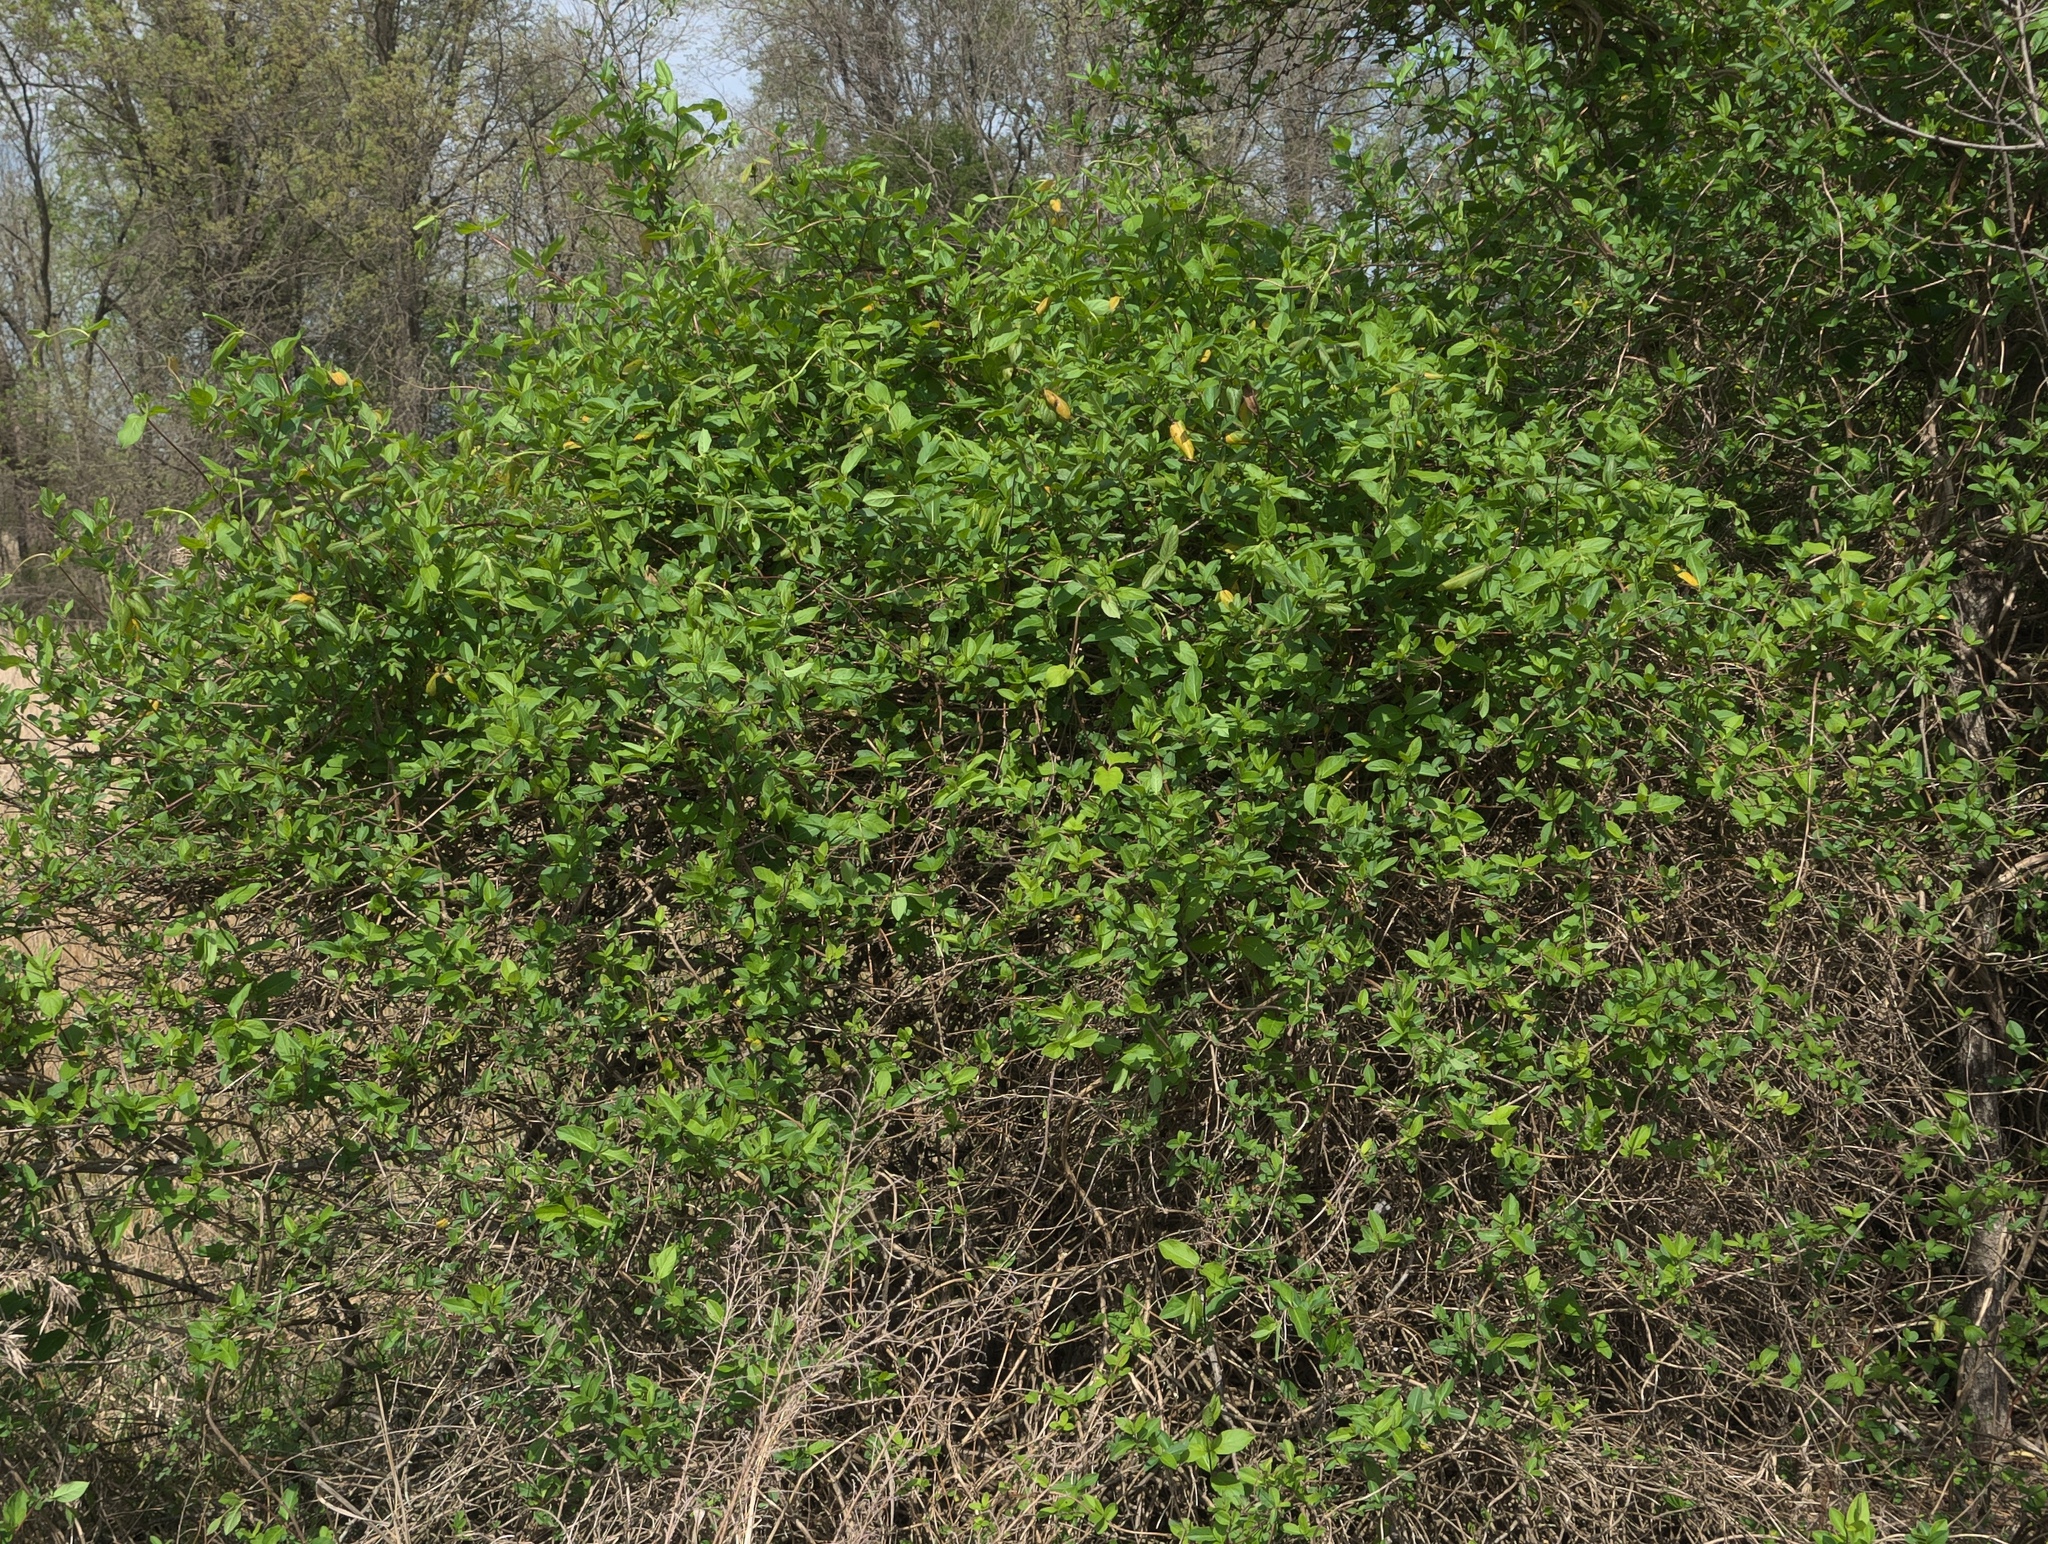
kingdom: Plantae
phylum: Tracheophyta
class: Magnoliopsida
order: Dipsacales
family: Caprifoliaceae
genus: Lonicera
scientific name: Lonicera japonica
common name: Japanese honeysuckle
